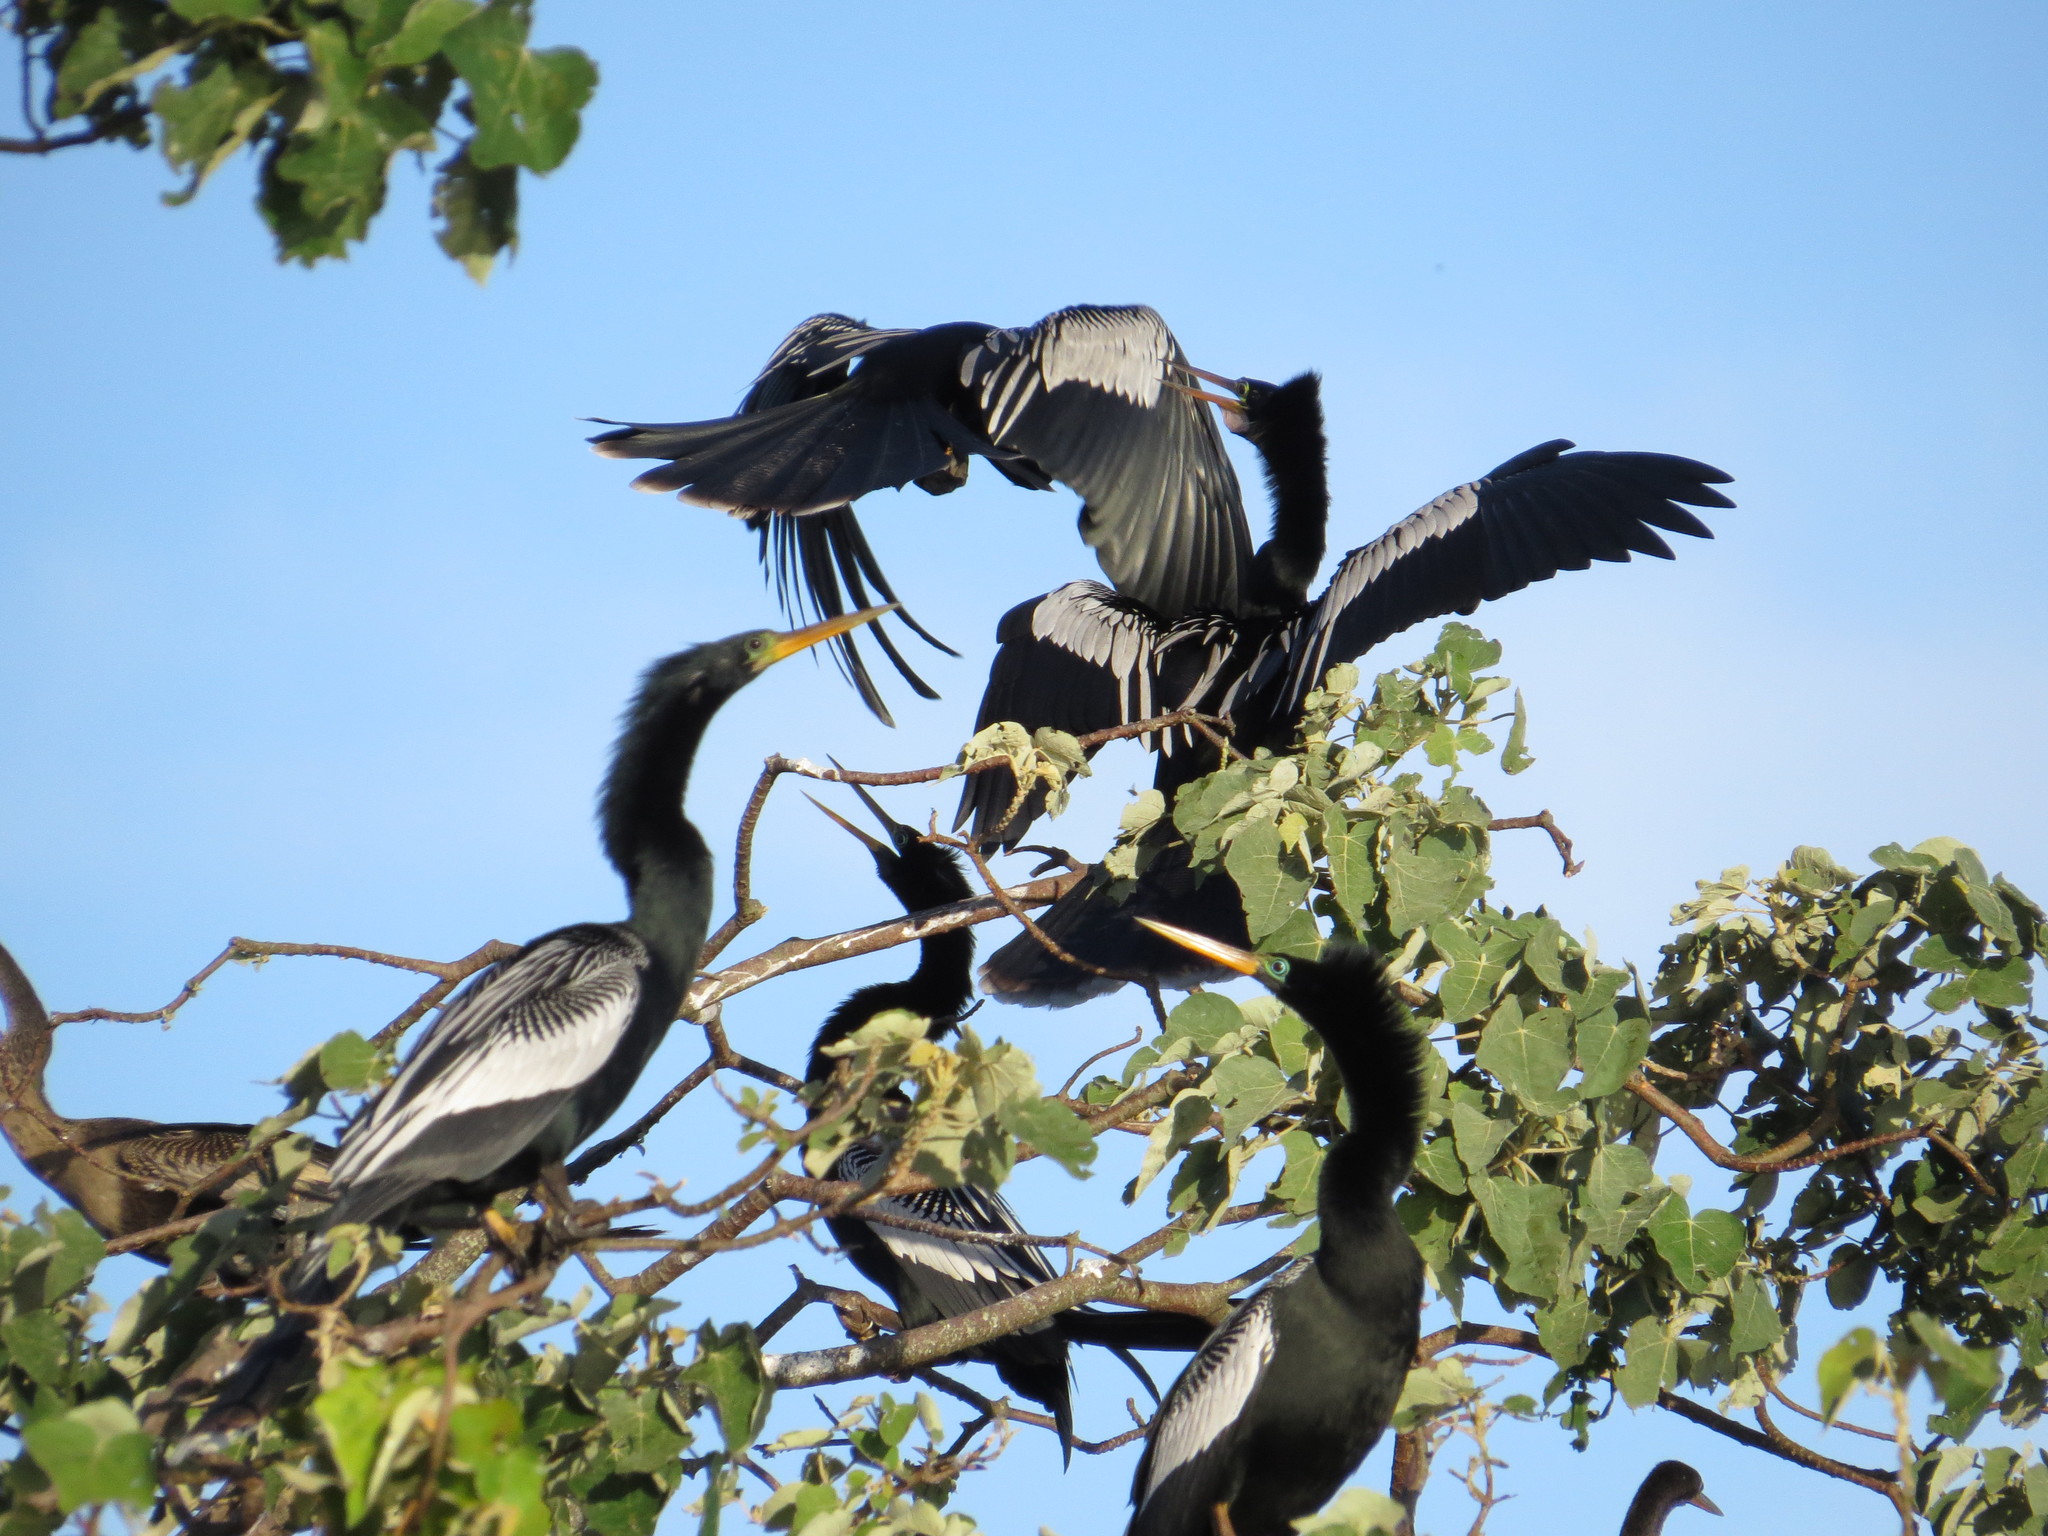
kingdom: Animalia
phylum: Chordata
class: Aves
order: Suliformes
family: Anhingidae
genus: Anhinga
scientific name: Anhinga anhinga
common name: Anhinga
